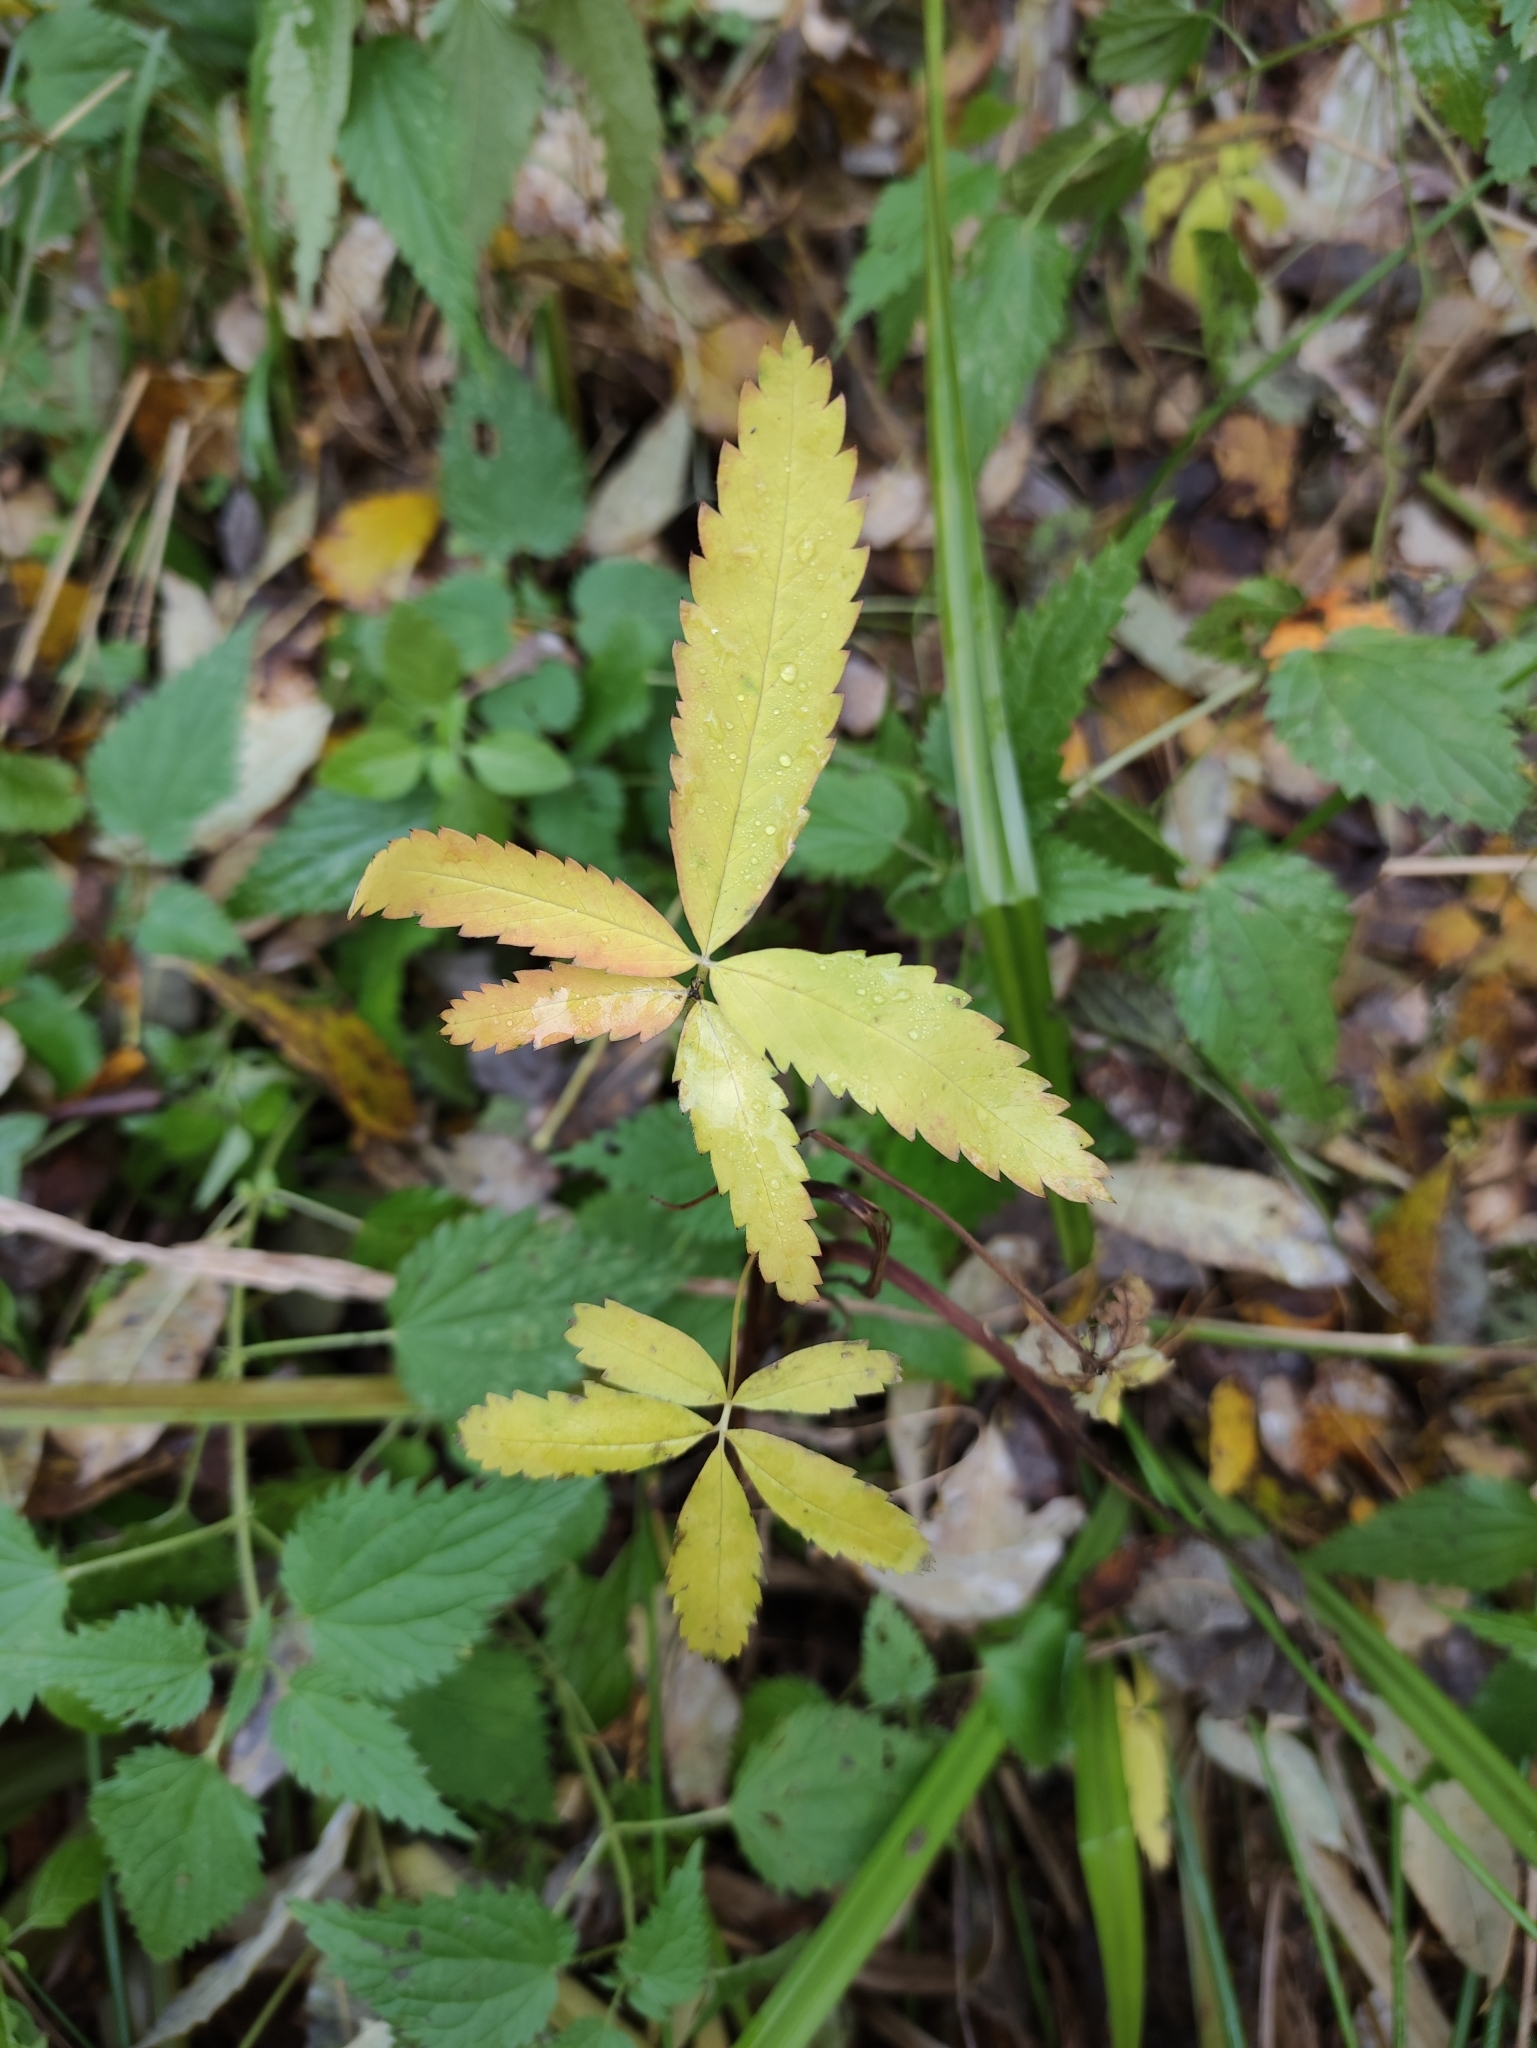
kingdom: Plantae
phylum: Tracheophyta
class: Magnoliopsida
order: Rosales
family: Rosaceae
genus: Comarum
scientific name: Comarum palustre
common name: Marsh cinquefoil
